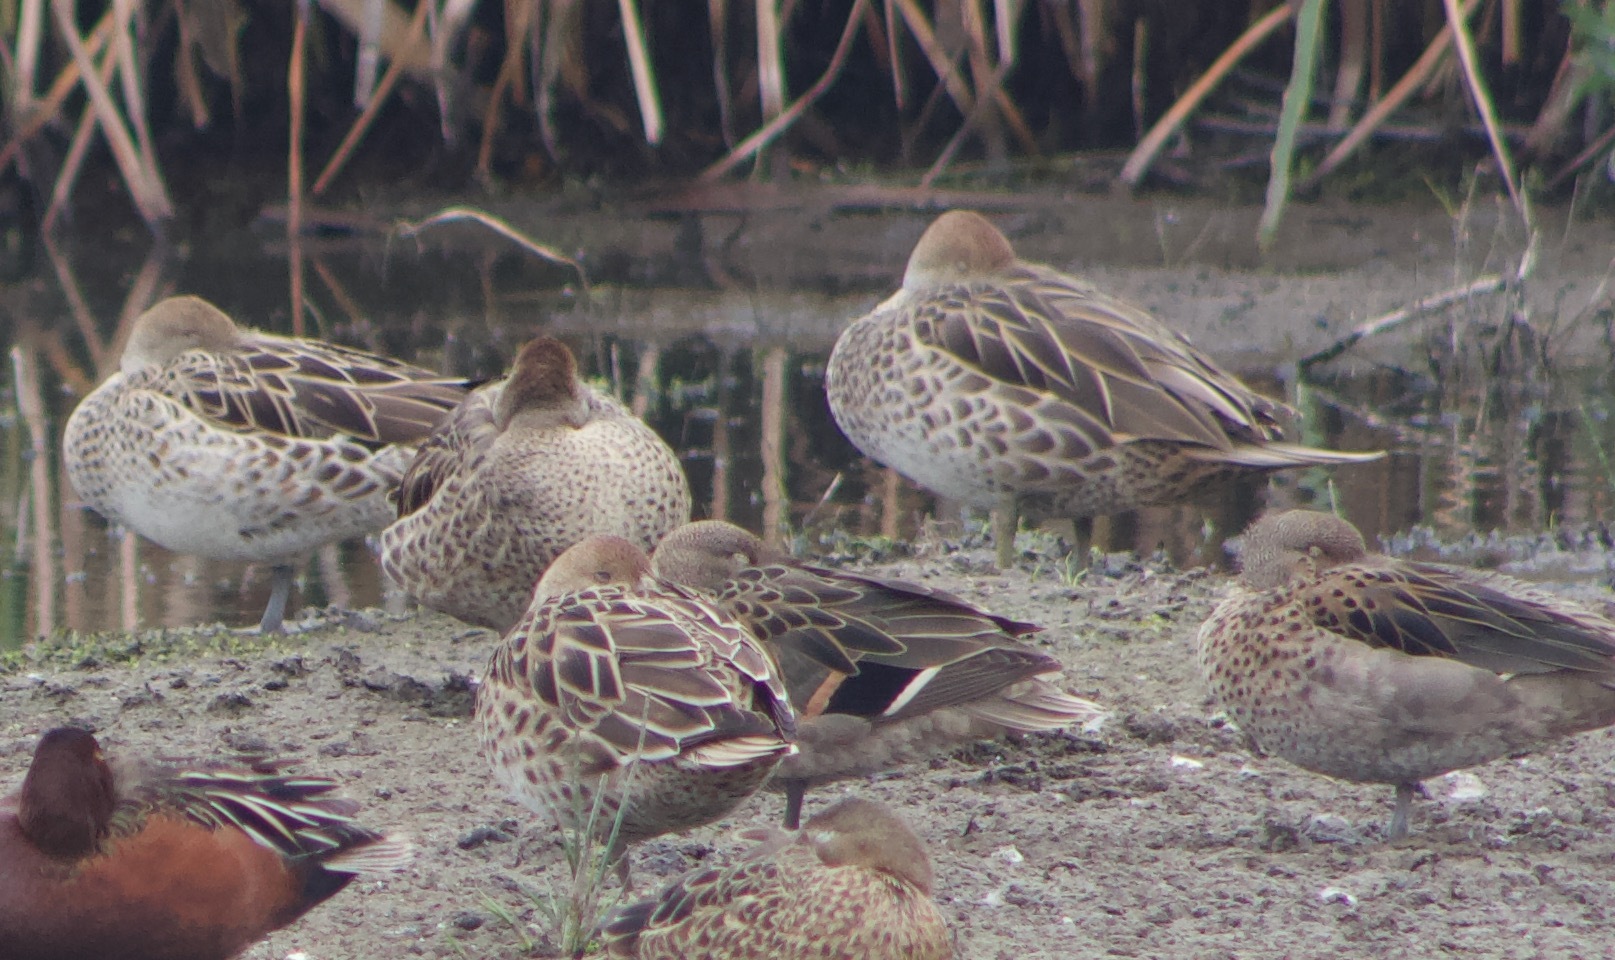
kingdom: Animalia
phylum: Chordata
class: Aves
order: Anseriformes
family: Anatidae
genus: Anas
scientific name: Anas georgica
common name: Yellow-billed pintail
